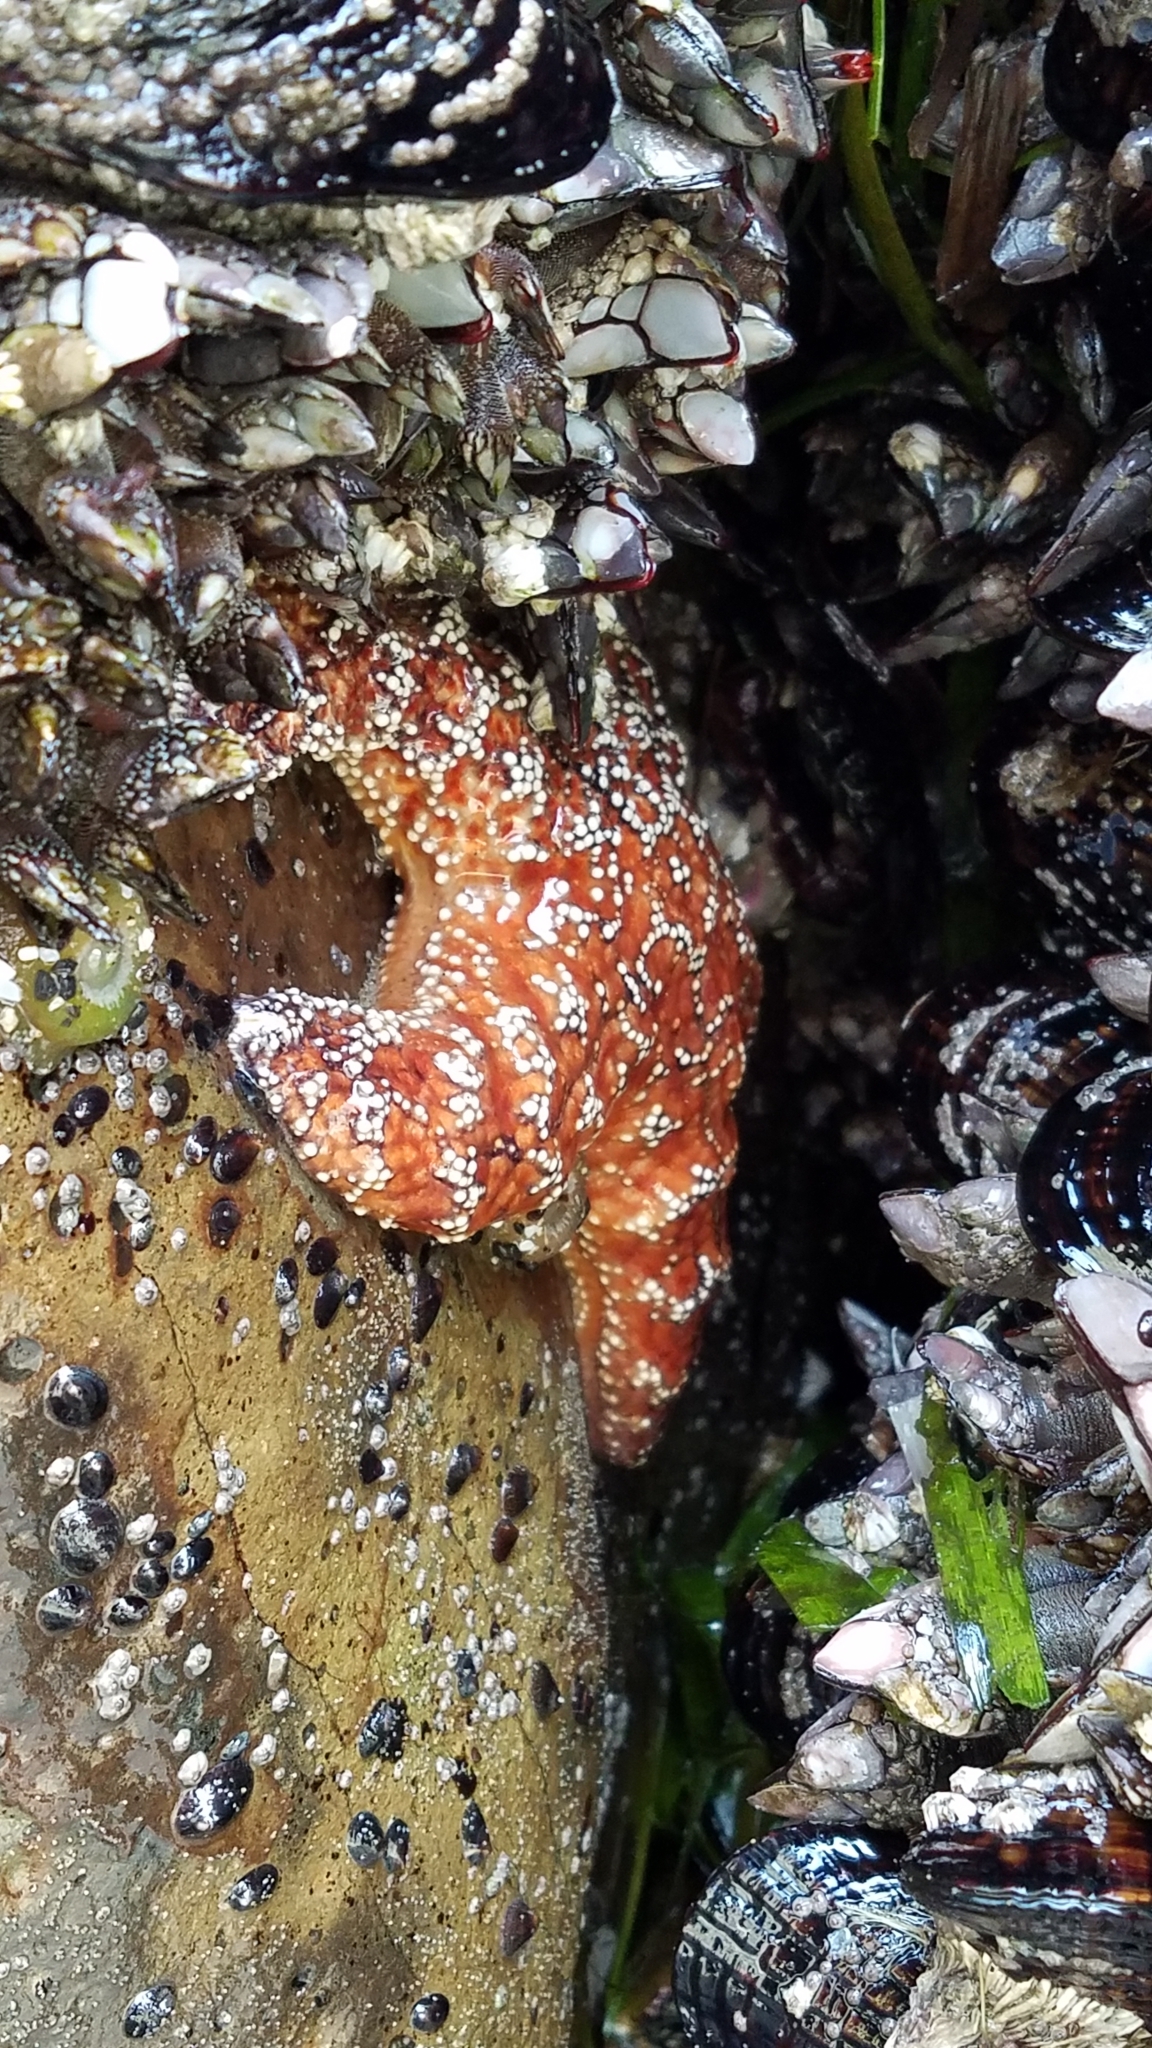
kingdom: Animalia
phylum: Echinodermata
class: Asteroidea
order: Forcipulatida
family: Asteriidae
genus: Pisaster
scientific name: Pisaster ochraceus
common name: Ochre stars
